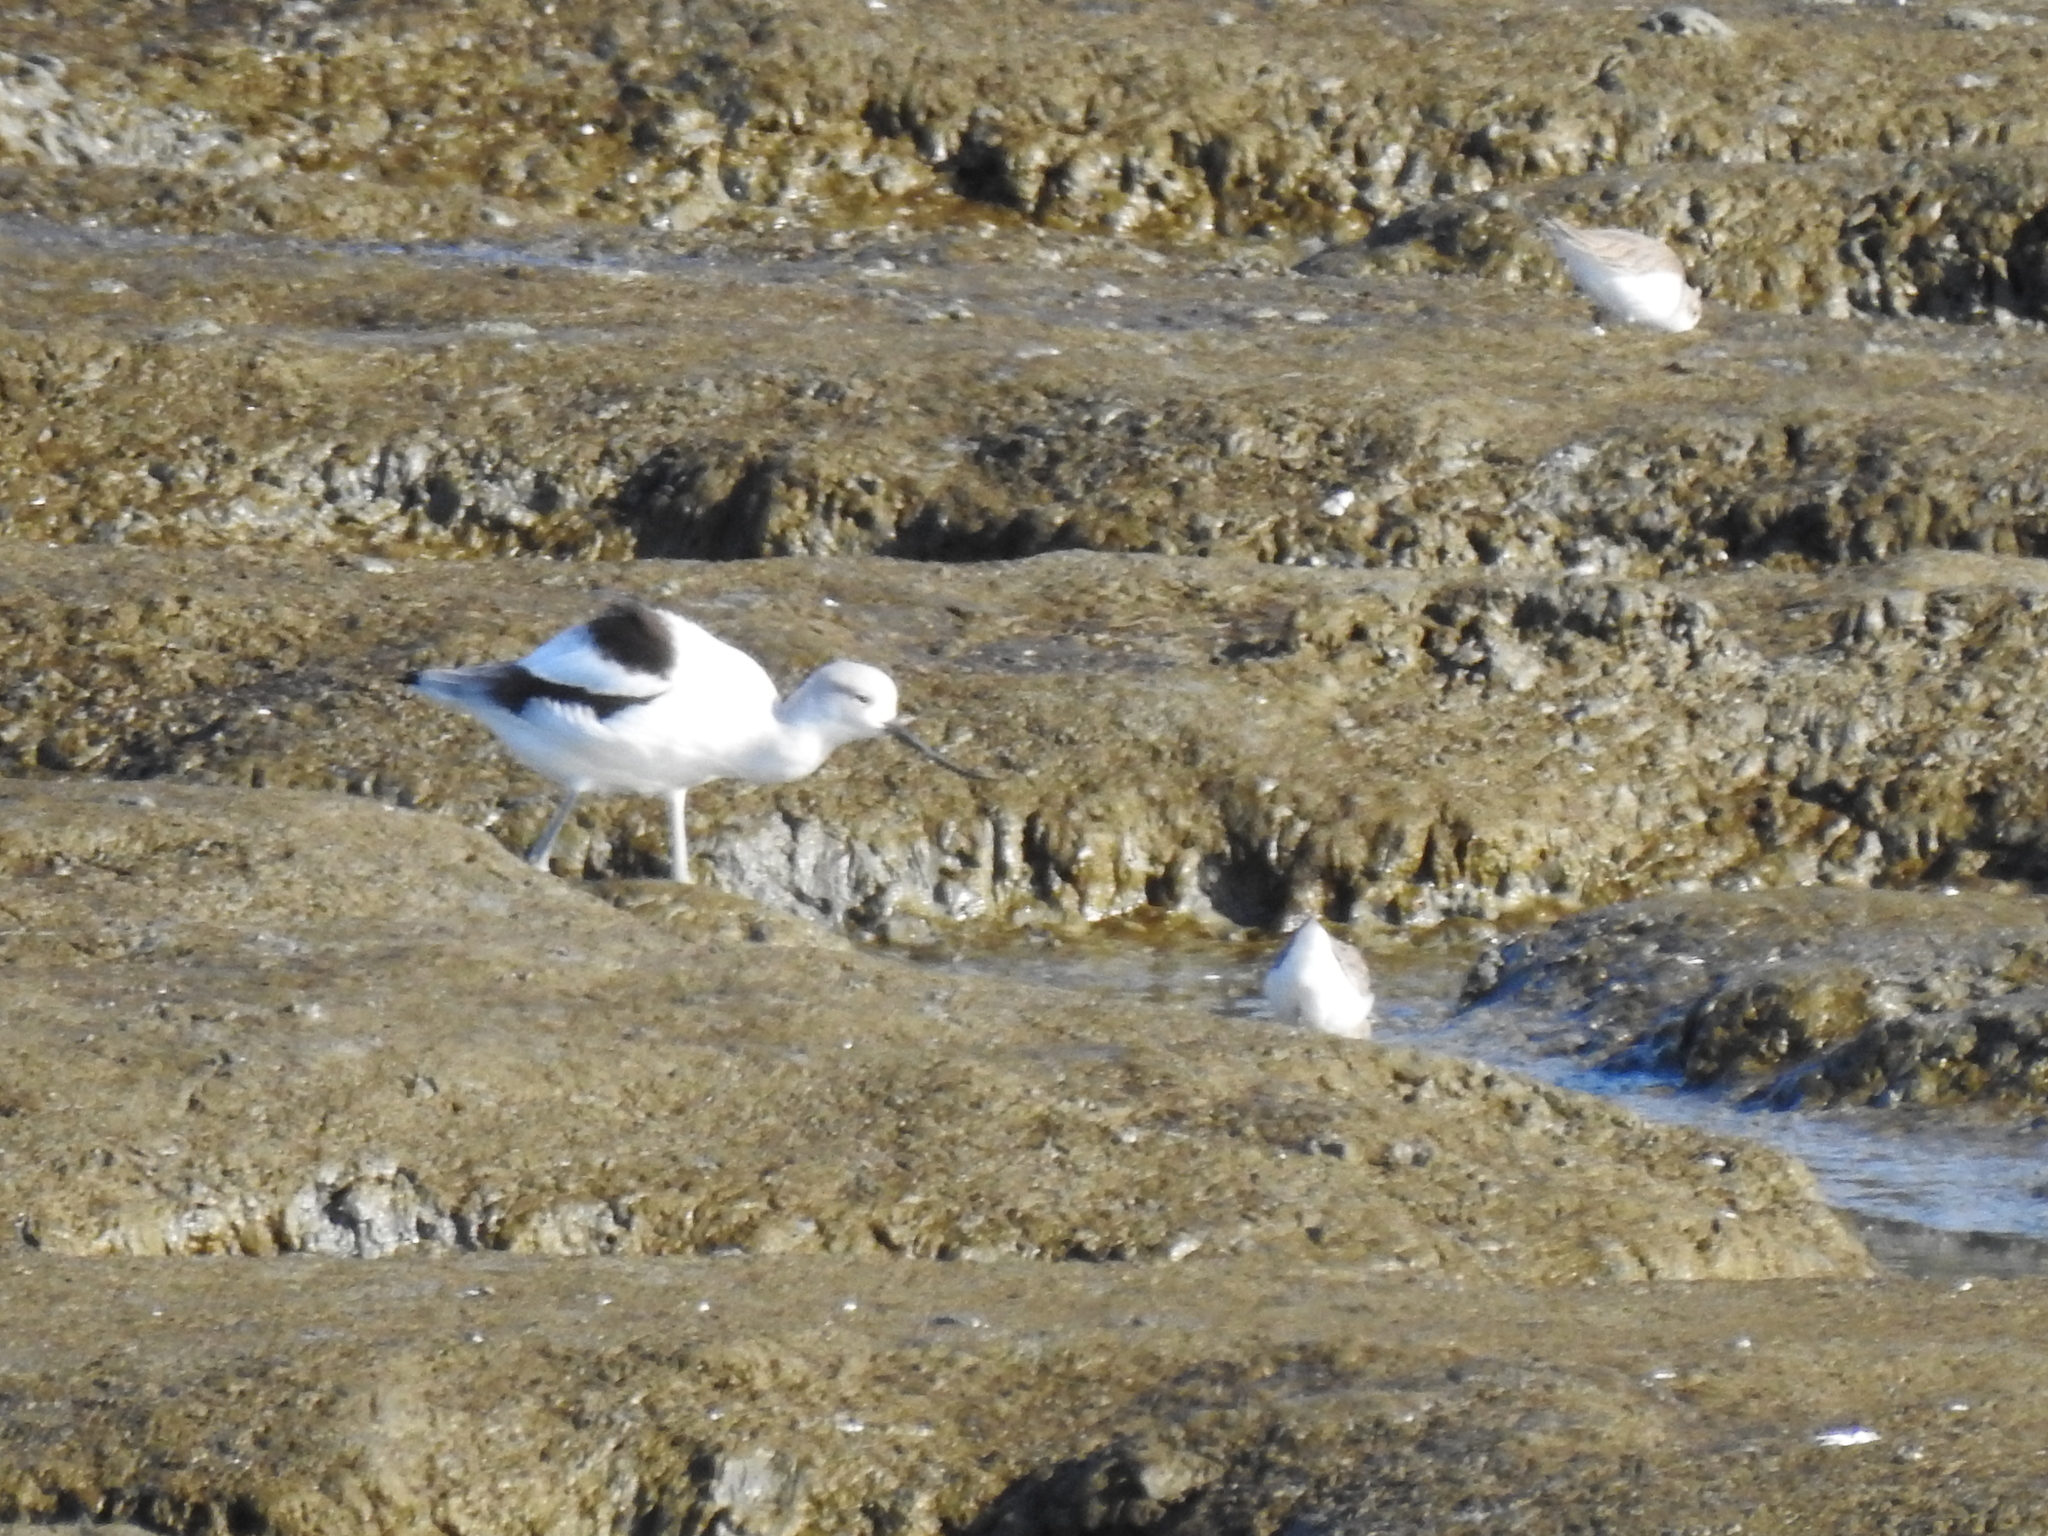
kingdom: Animalia
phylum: Chordata
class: Aves
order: Charadriiformes
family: Recurvirostridae
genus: Recurvirostra
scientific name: Recurvirostra americana
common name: American avocet
